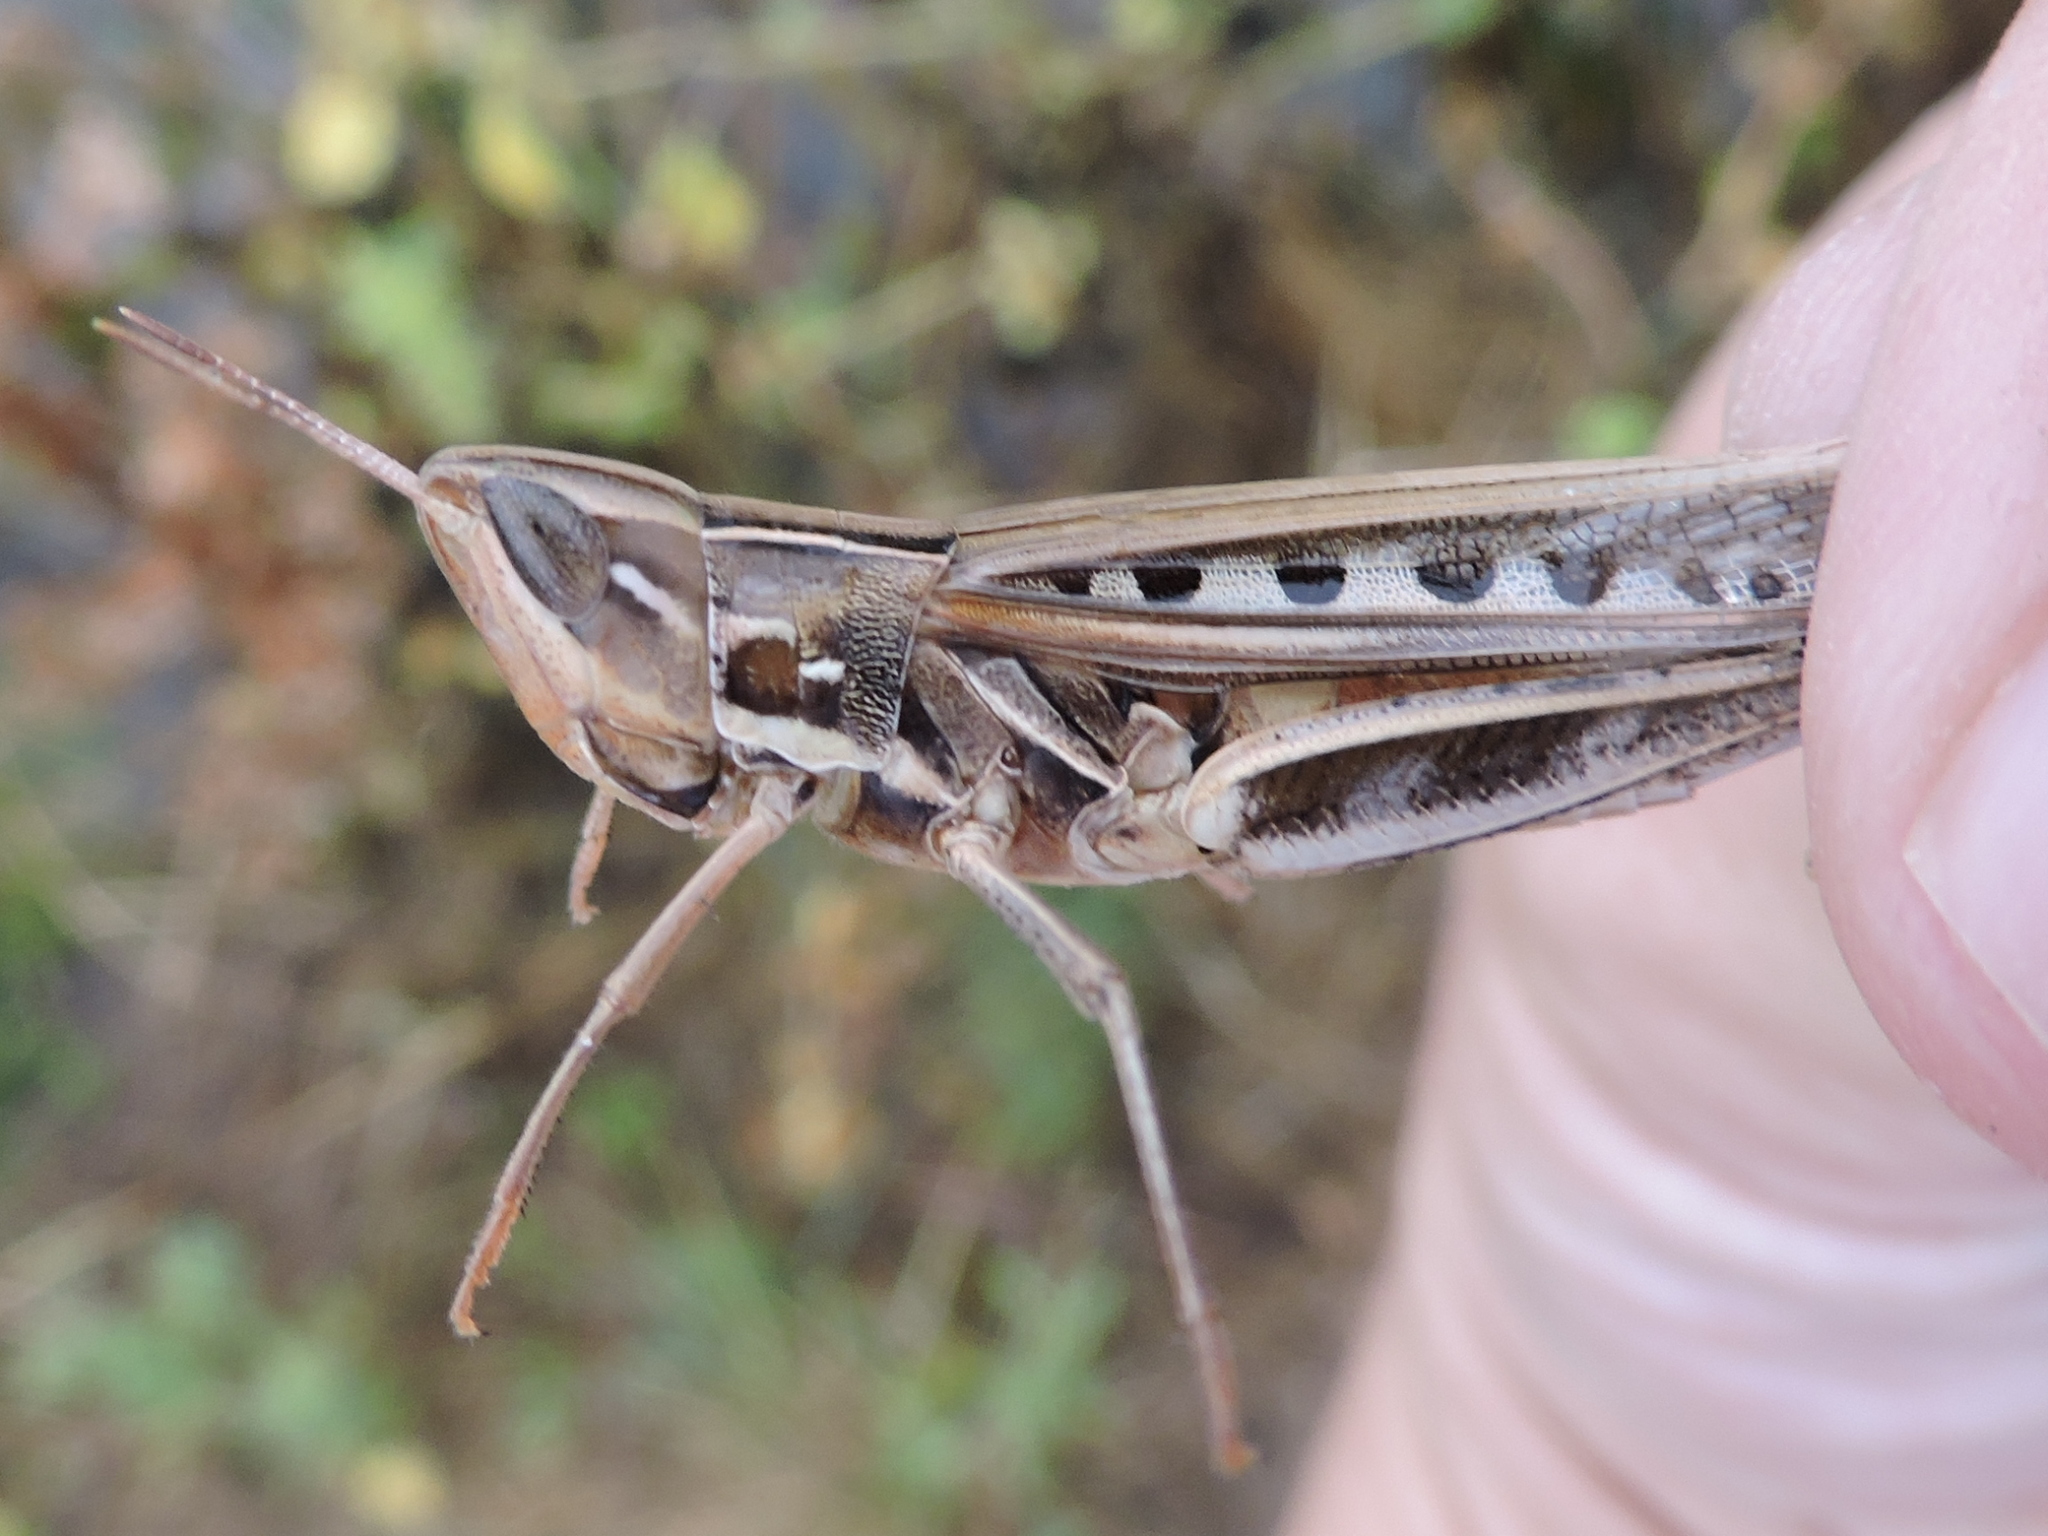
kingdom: Animalia
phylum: Arthropoda
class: Insecta
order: Orthoptera
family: Acrididae
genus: Syrbula
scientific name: Syrbula admirabilis
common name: Handsome grasshopper
